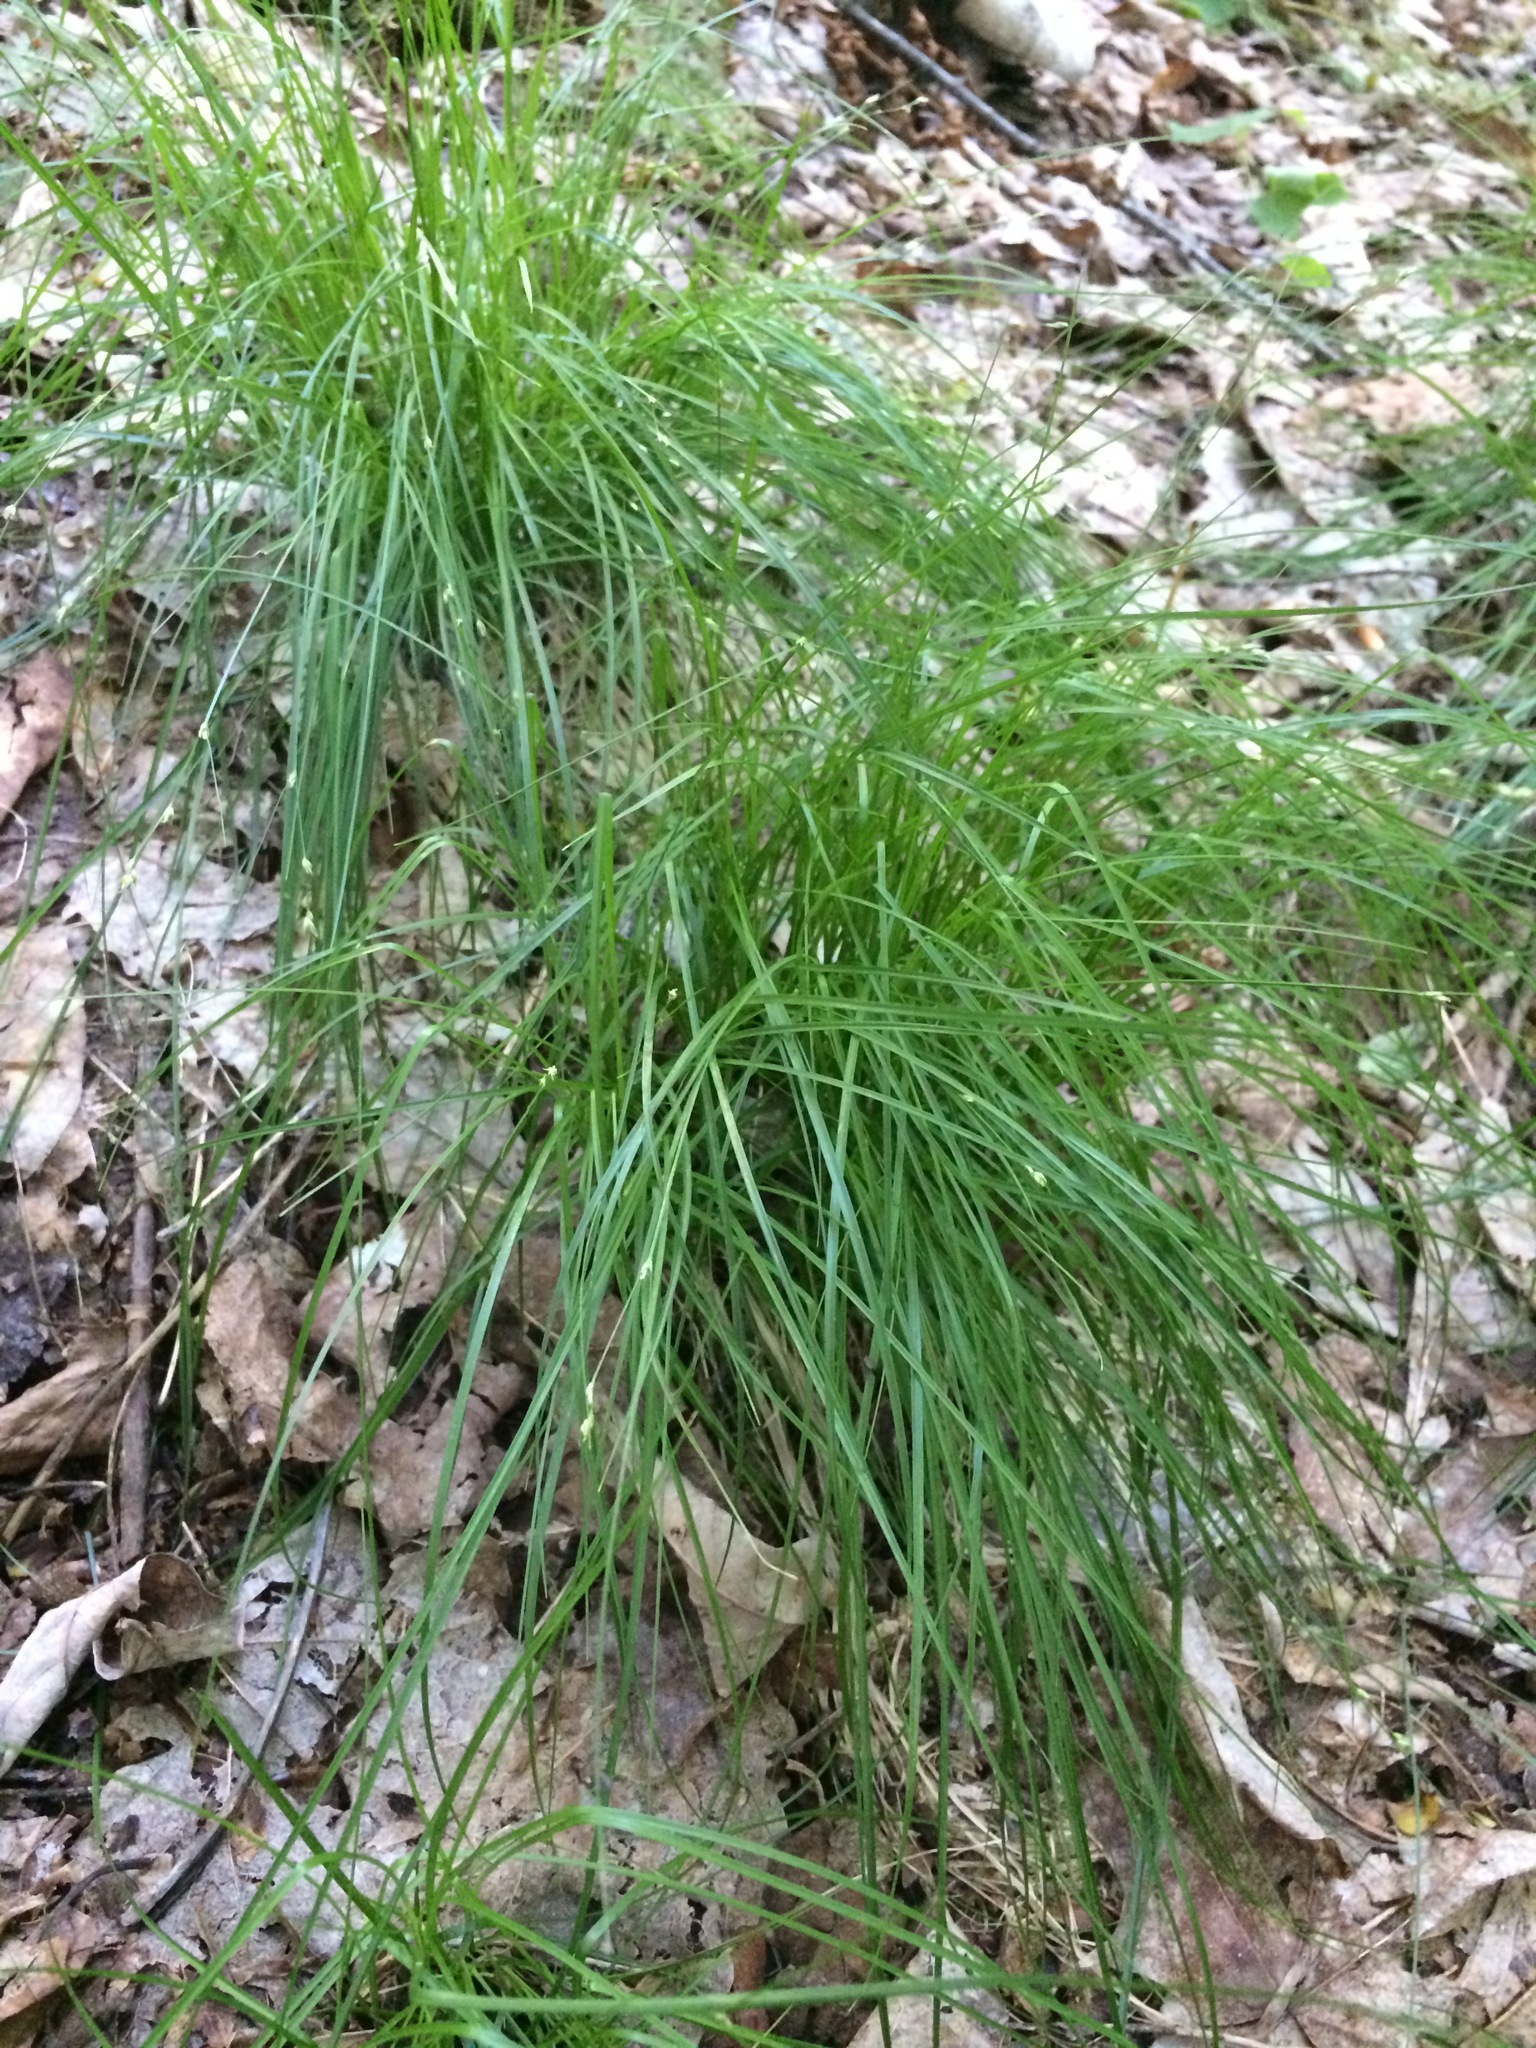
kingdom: Plantae
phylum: Tracheophyta
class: Liliopsida
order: Poales
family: Cyperaceae
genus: Carex
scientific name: Carex radiata
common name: Eastern star sedge
